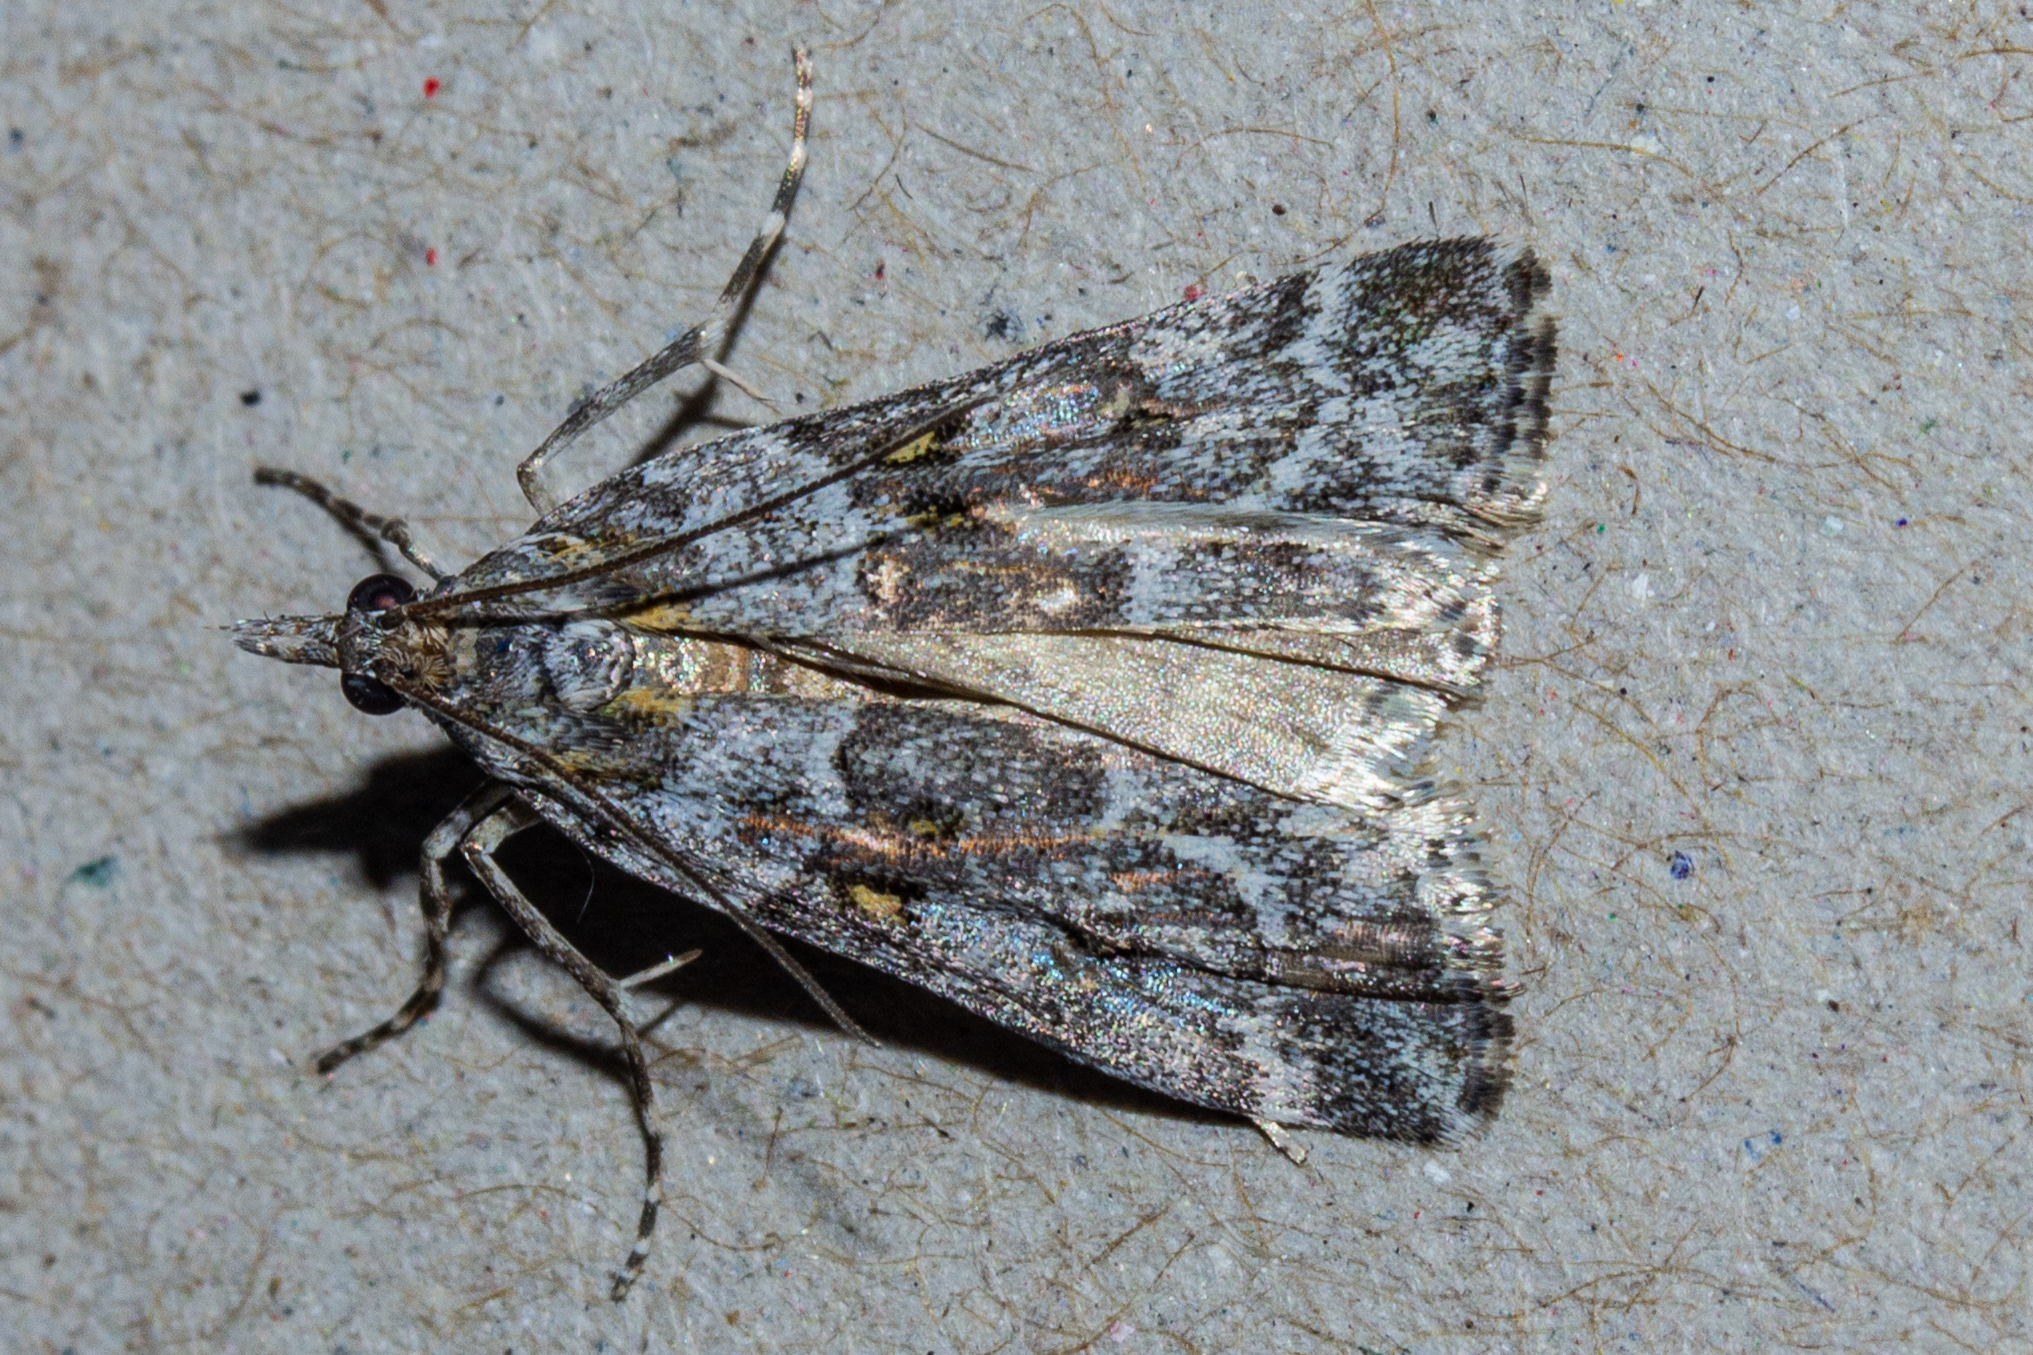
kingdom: Animalia
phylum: Arthropoda
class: Insecta
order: Lepidoptera
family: Crambidae
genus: Scoparia
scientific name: Scoparia tetracycla
